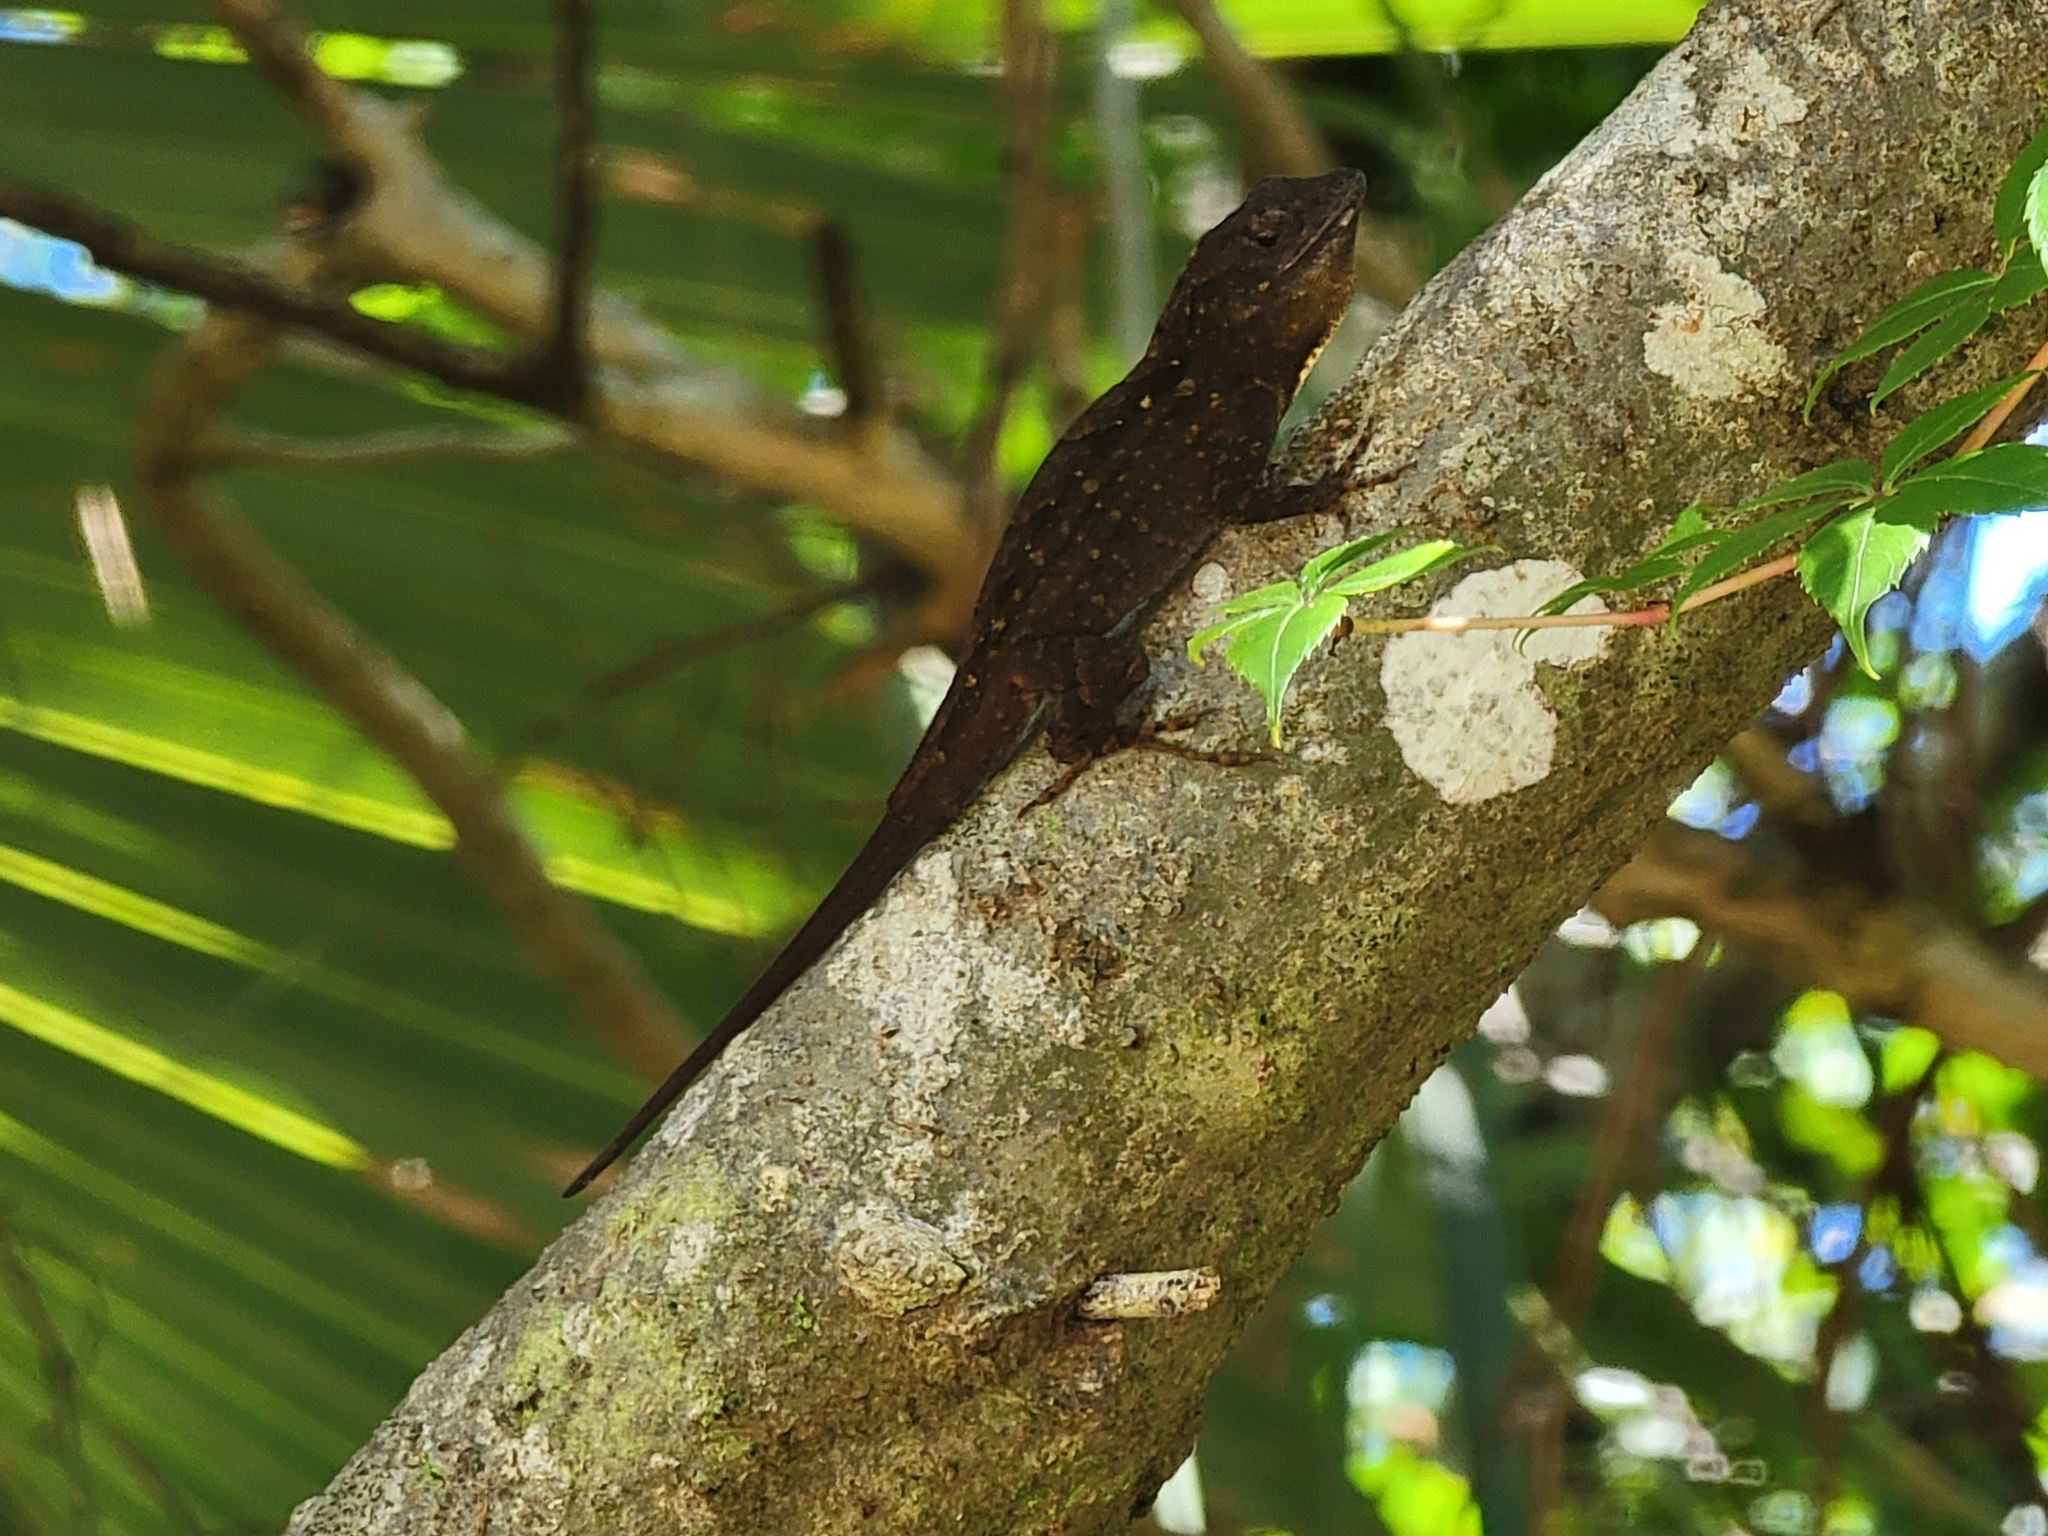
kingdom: Animalia
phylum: Chordata
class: Squamata
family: Dactyloidae
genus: Anolis
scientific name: Anolis sagrei
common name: Brown anole
